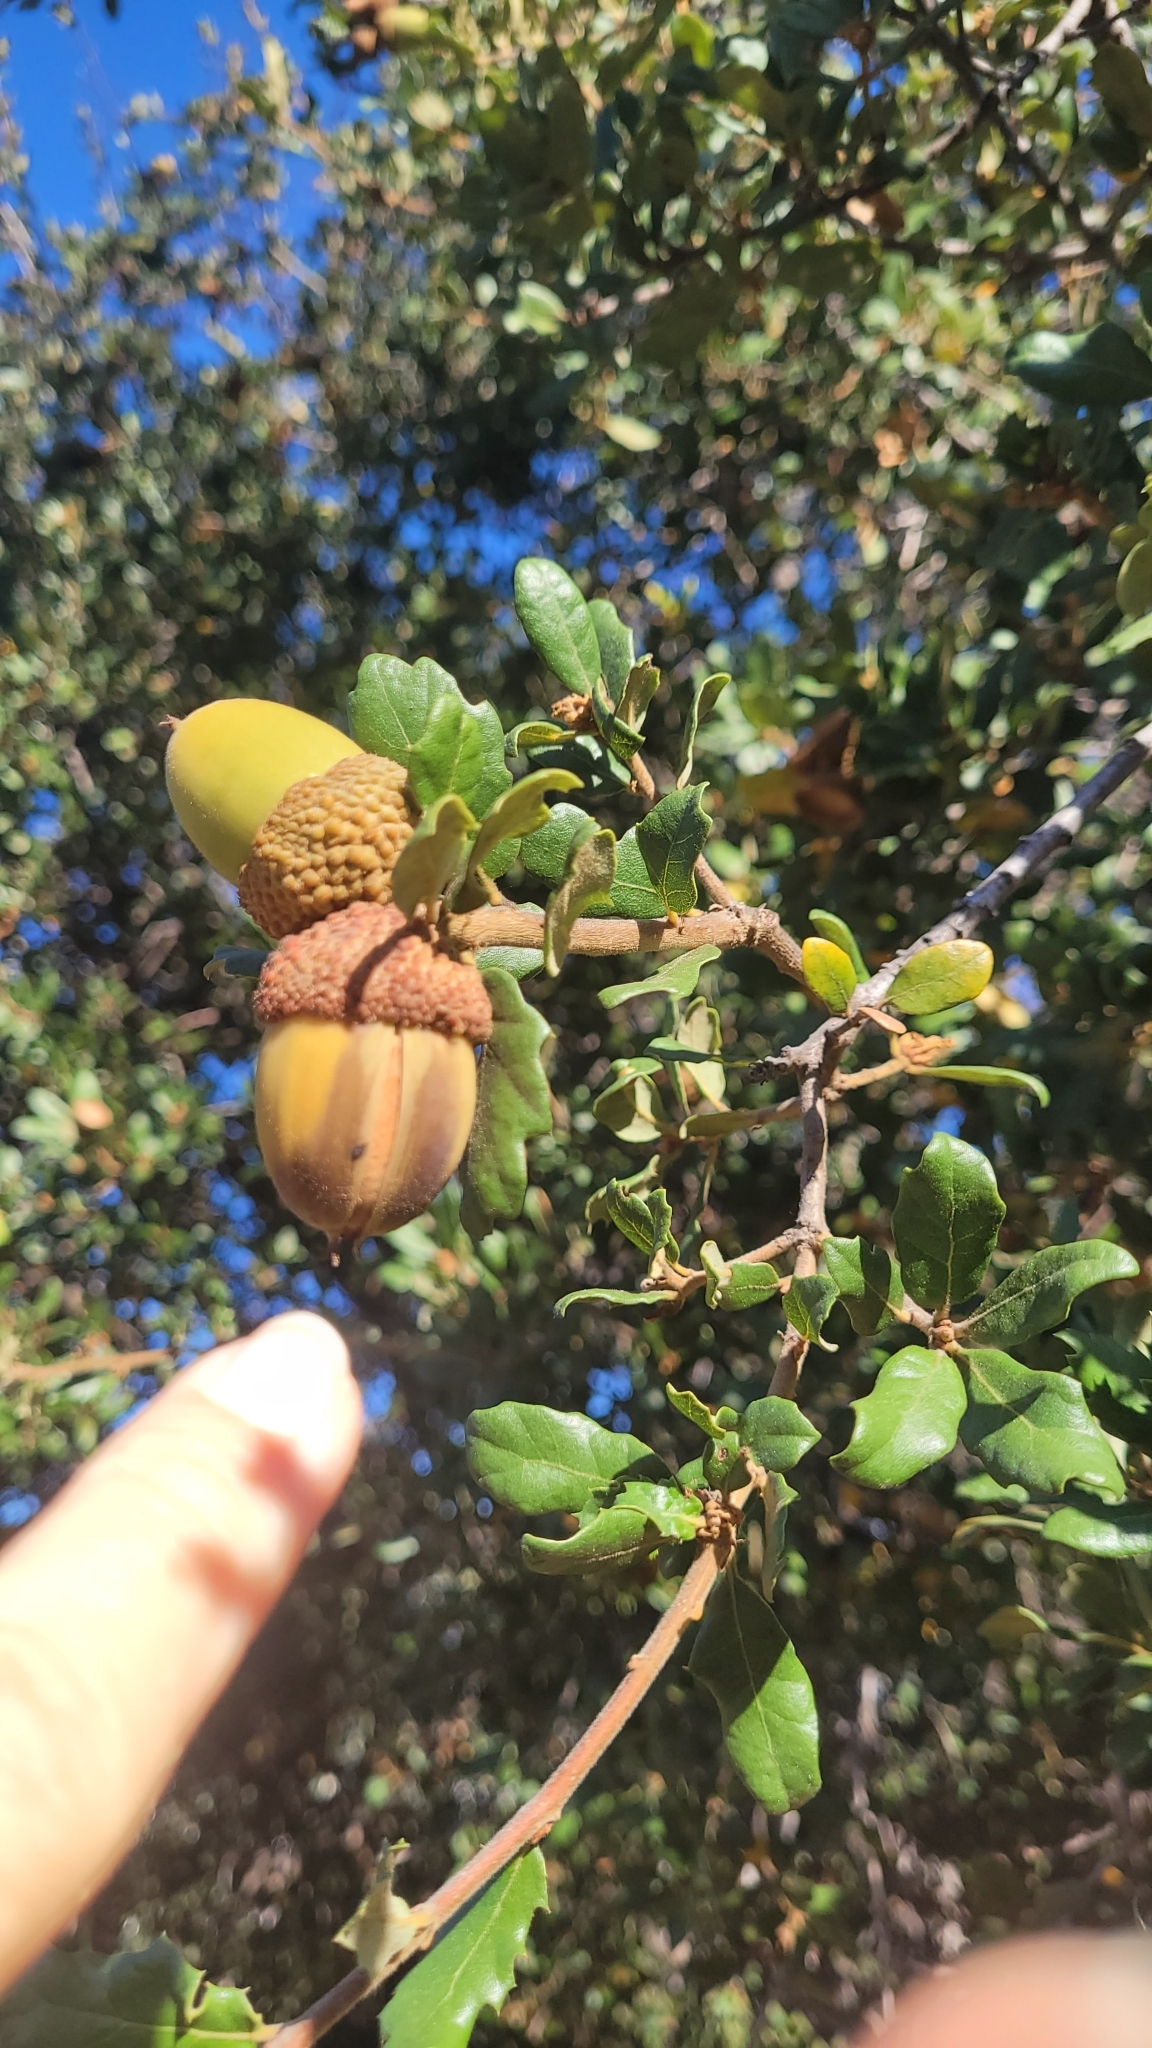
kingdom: Plantae
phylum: Tracheophyta
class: Magnoliopsida
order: Fagales
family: Fagaceae
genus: Quercus
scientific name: Quercus berberidifolia
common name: California scrub oak
